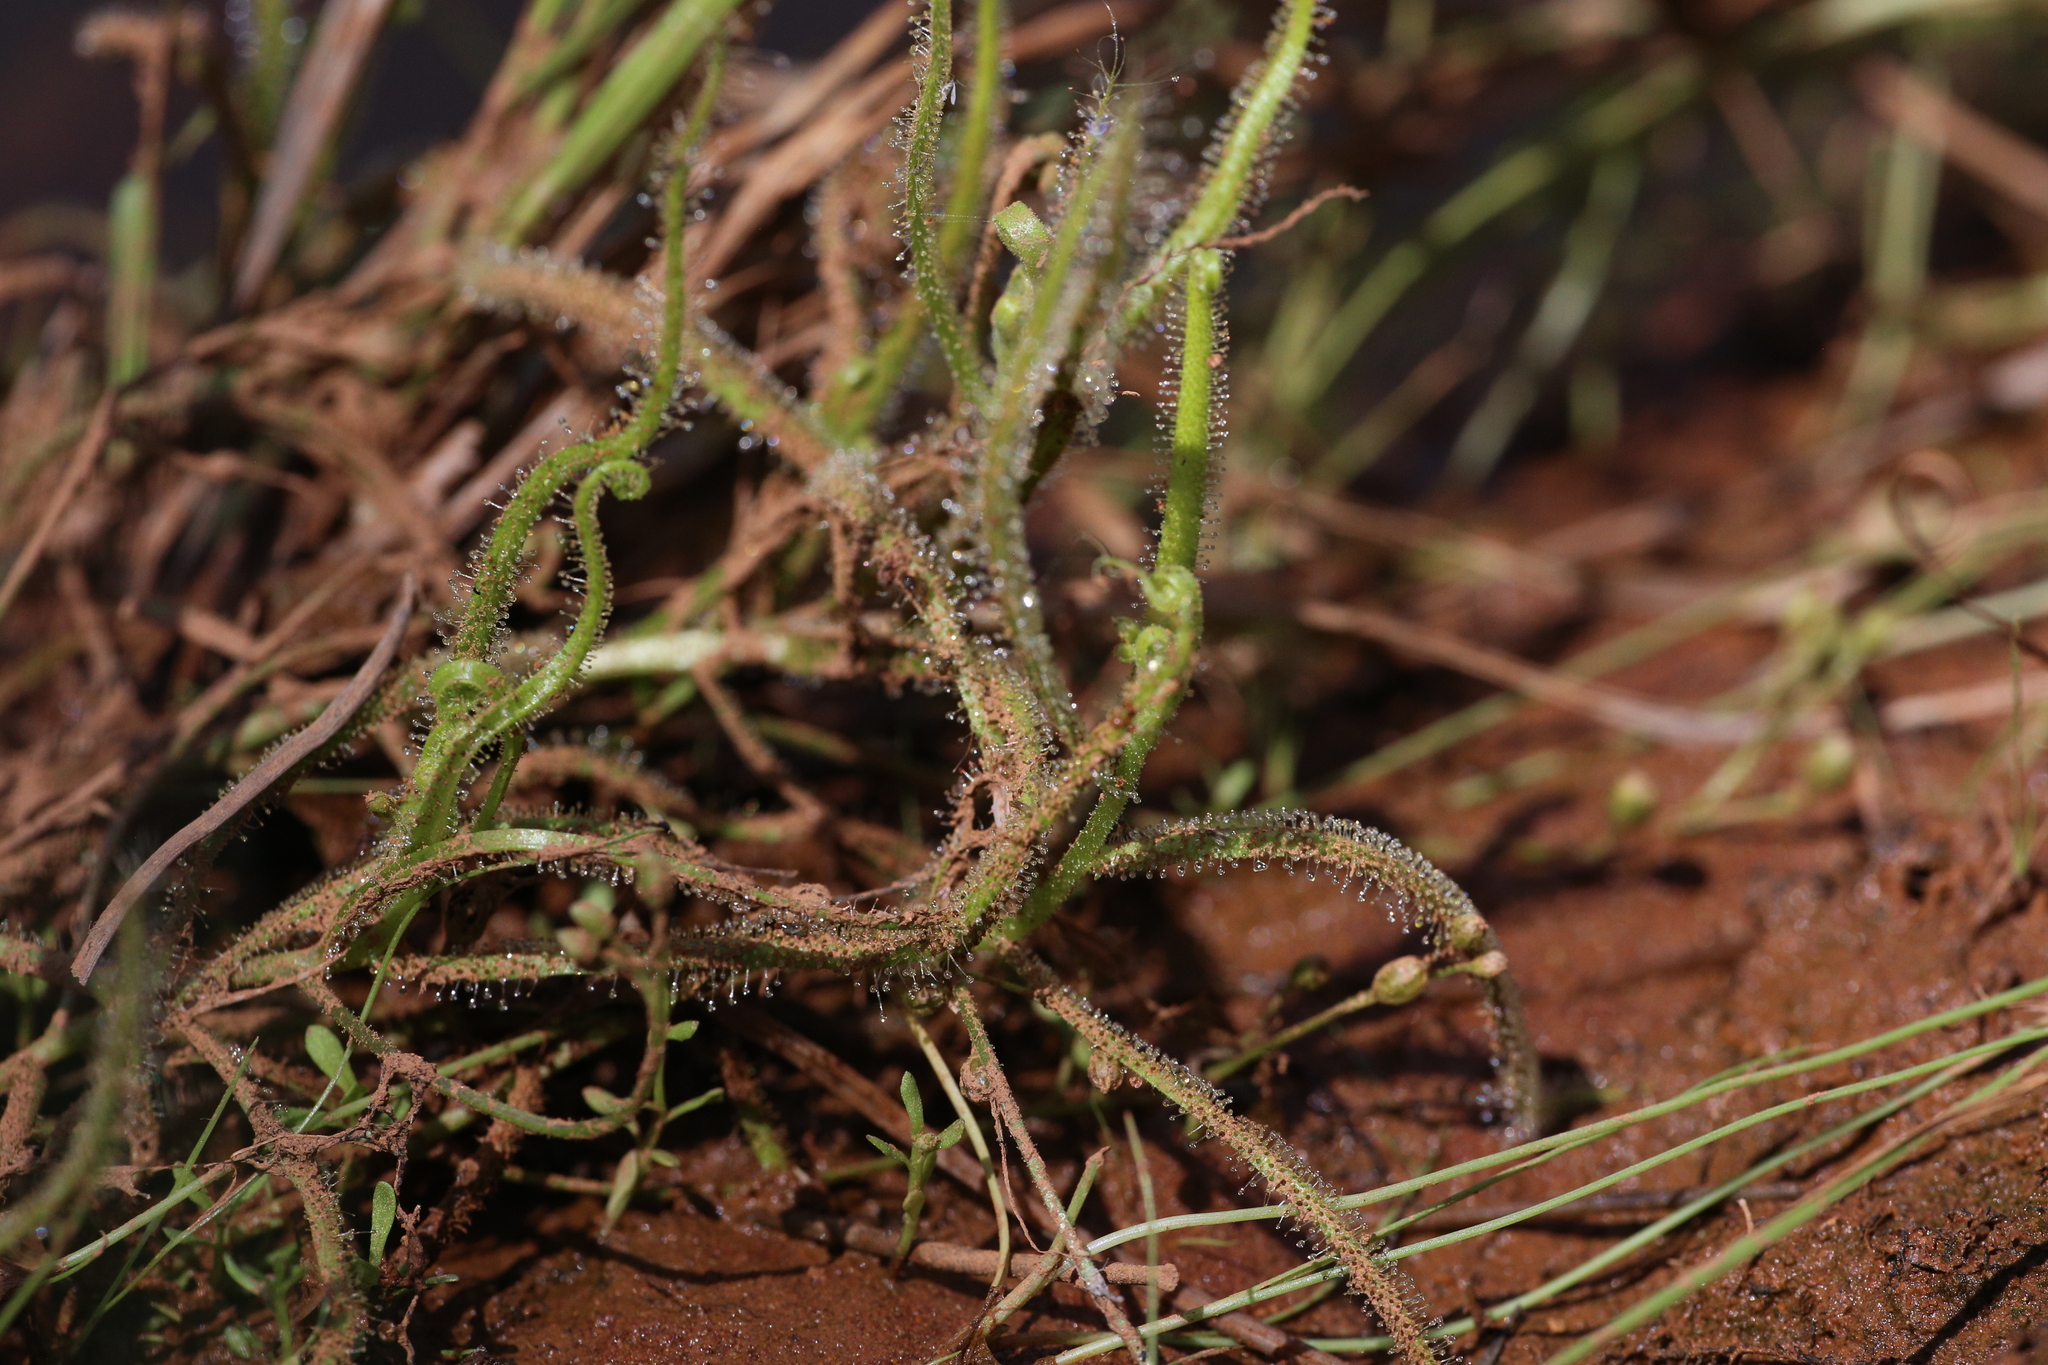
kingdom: Plantae
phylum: Tracheophyta
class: Magnoliopsida
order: Caryophyllales
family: Droseraceae
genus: Drosera
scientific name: Drosera finlaysoniana
